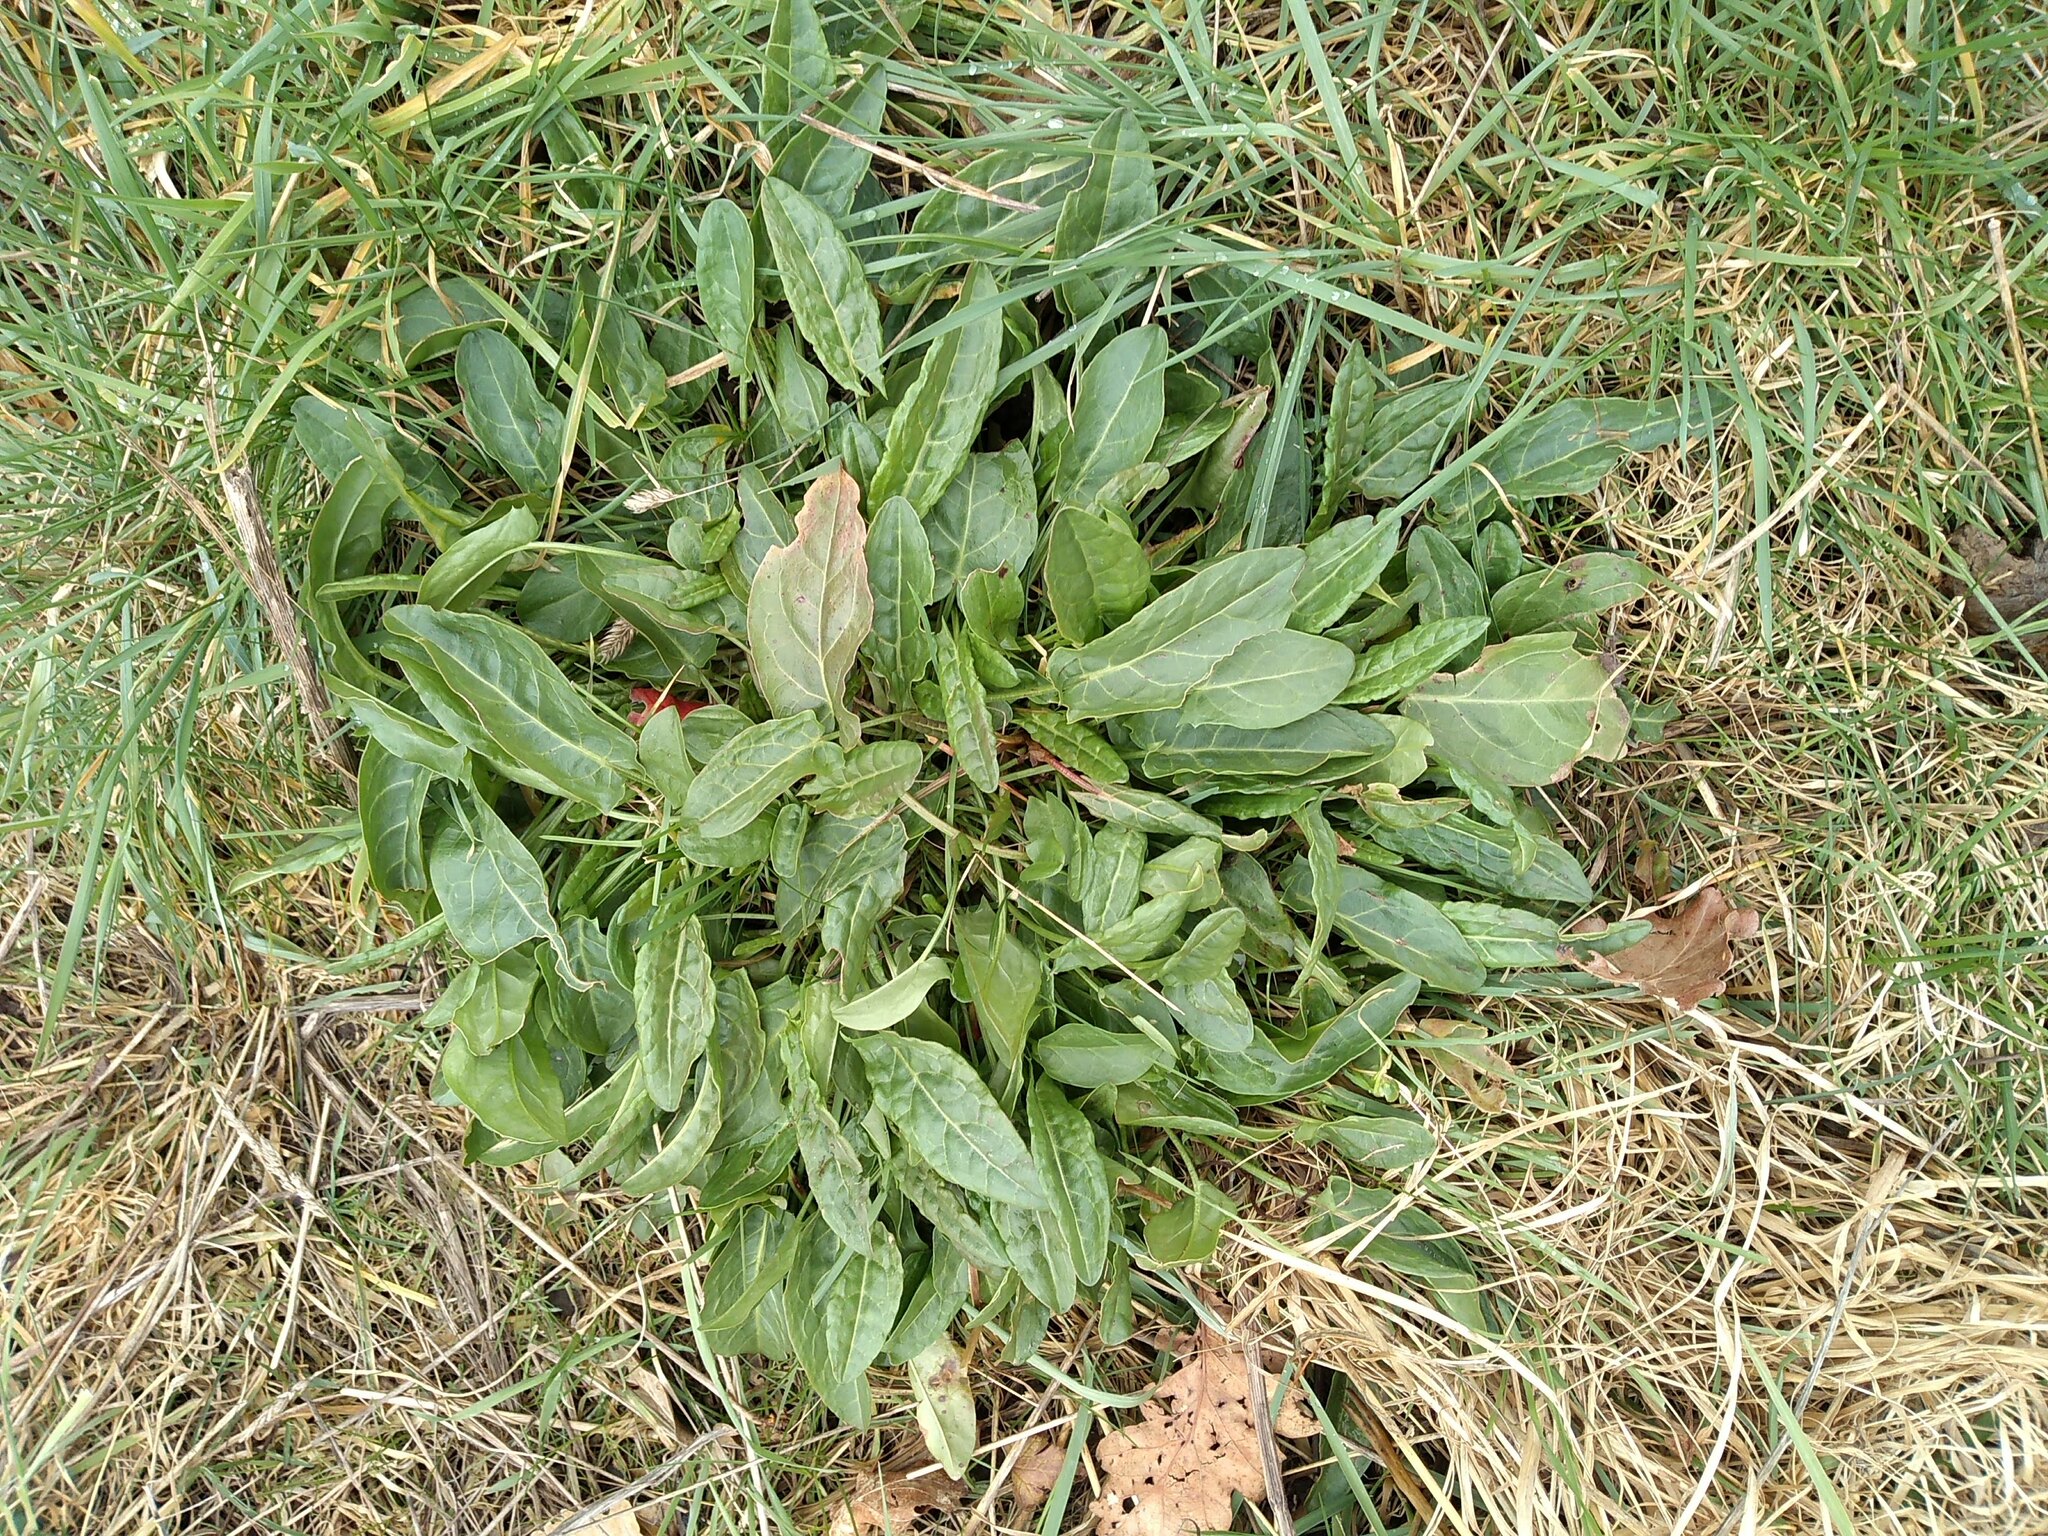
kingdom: Plantae
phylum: Tracheophyta
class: Magnoliopsida
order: Caryophyllales
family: Polygonaceae
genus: Rumex
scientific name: Rumex acetosa
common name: Garden sorrel
